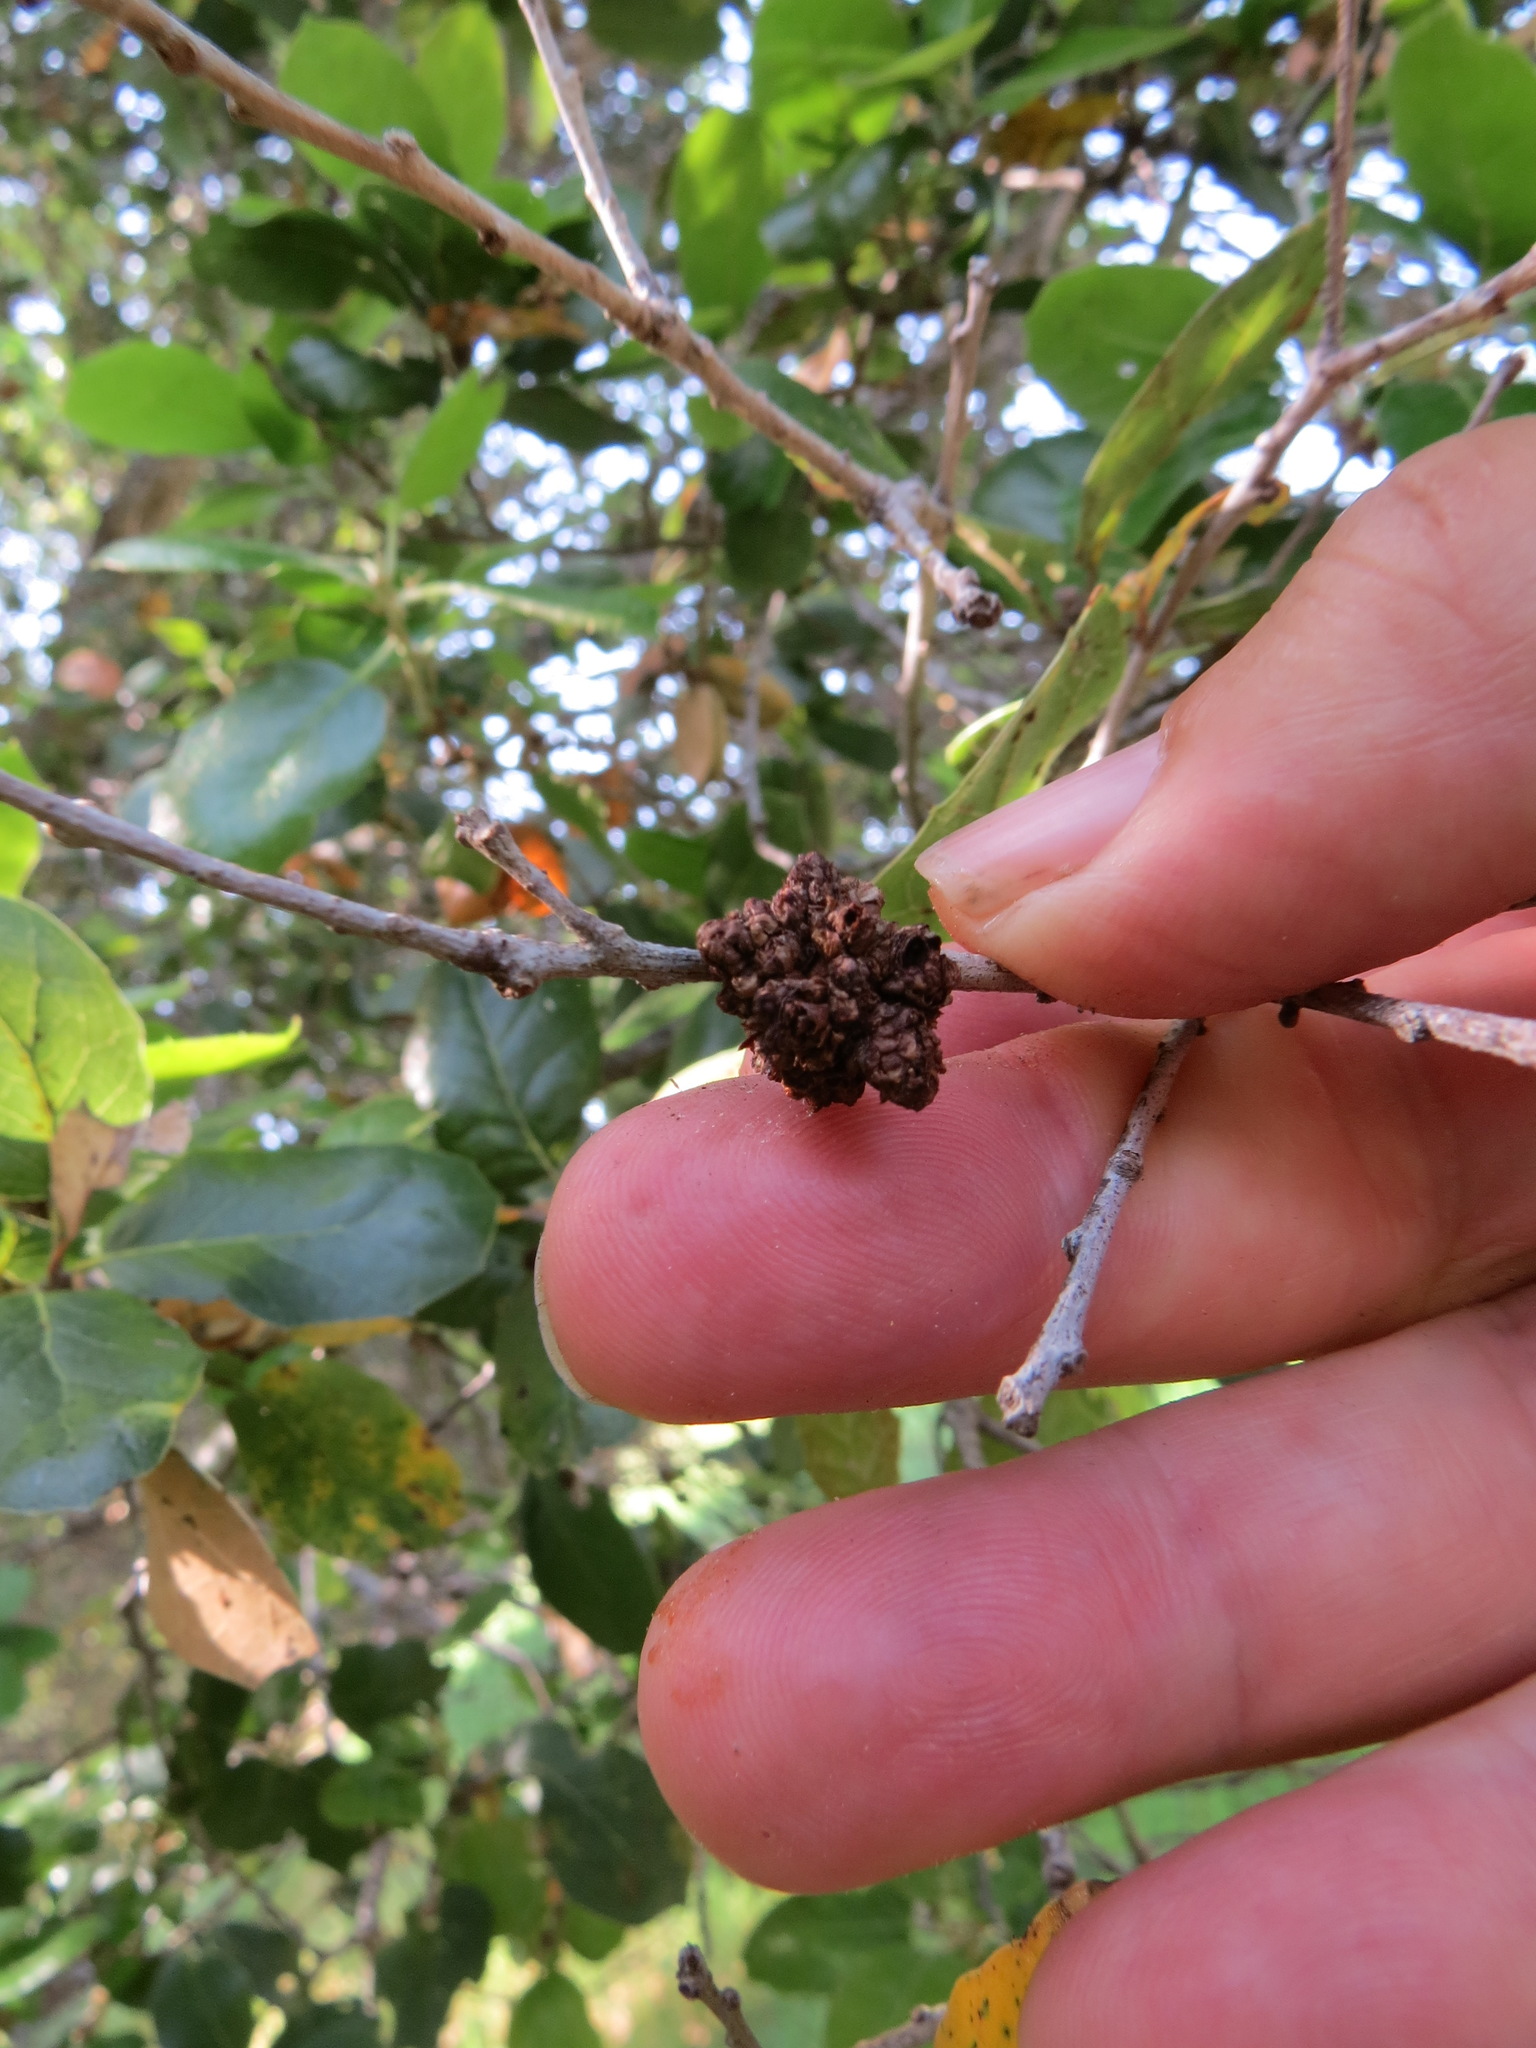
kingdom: Animalia
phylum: Arthropoda
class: Arachnida
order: Trombidiformes
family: Eriophyidae
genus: Aceria
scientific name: Aceria
